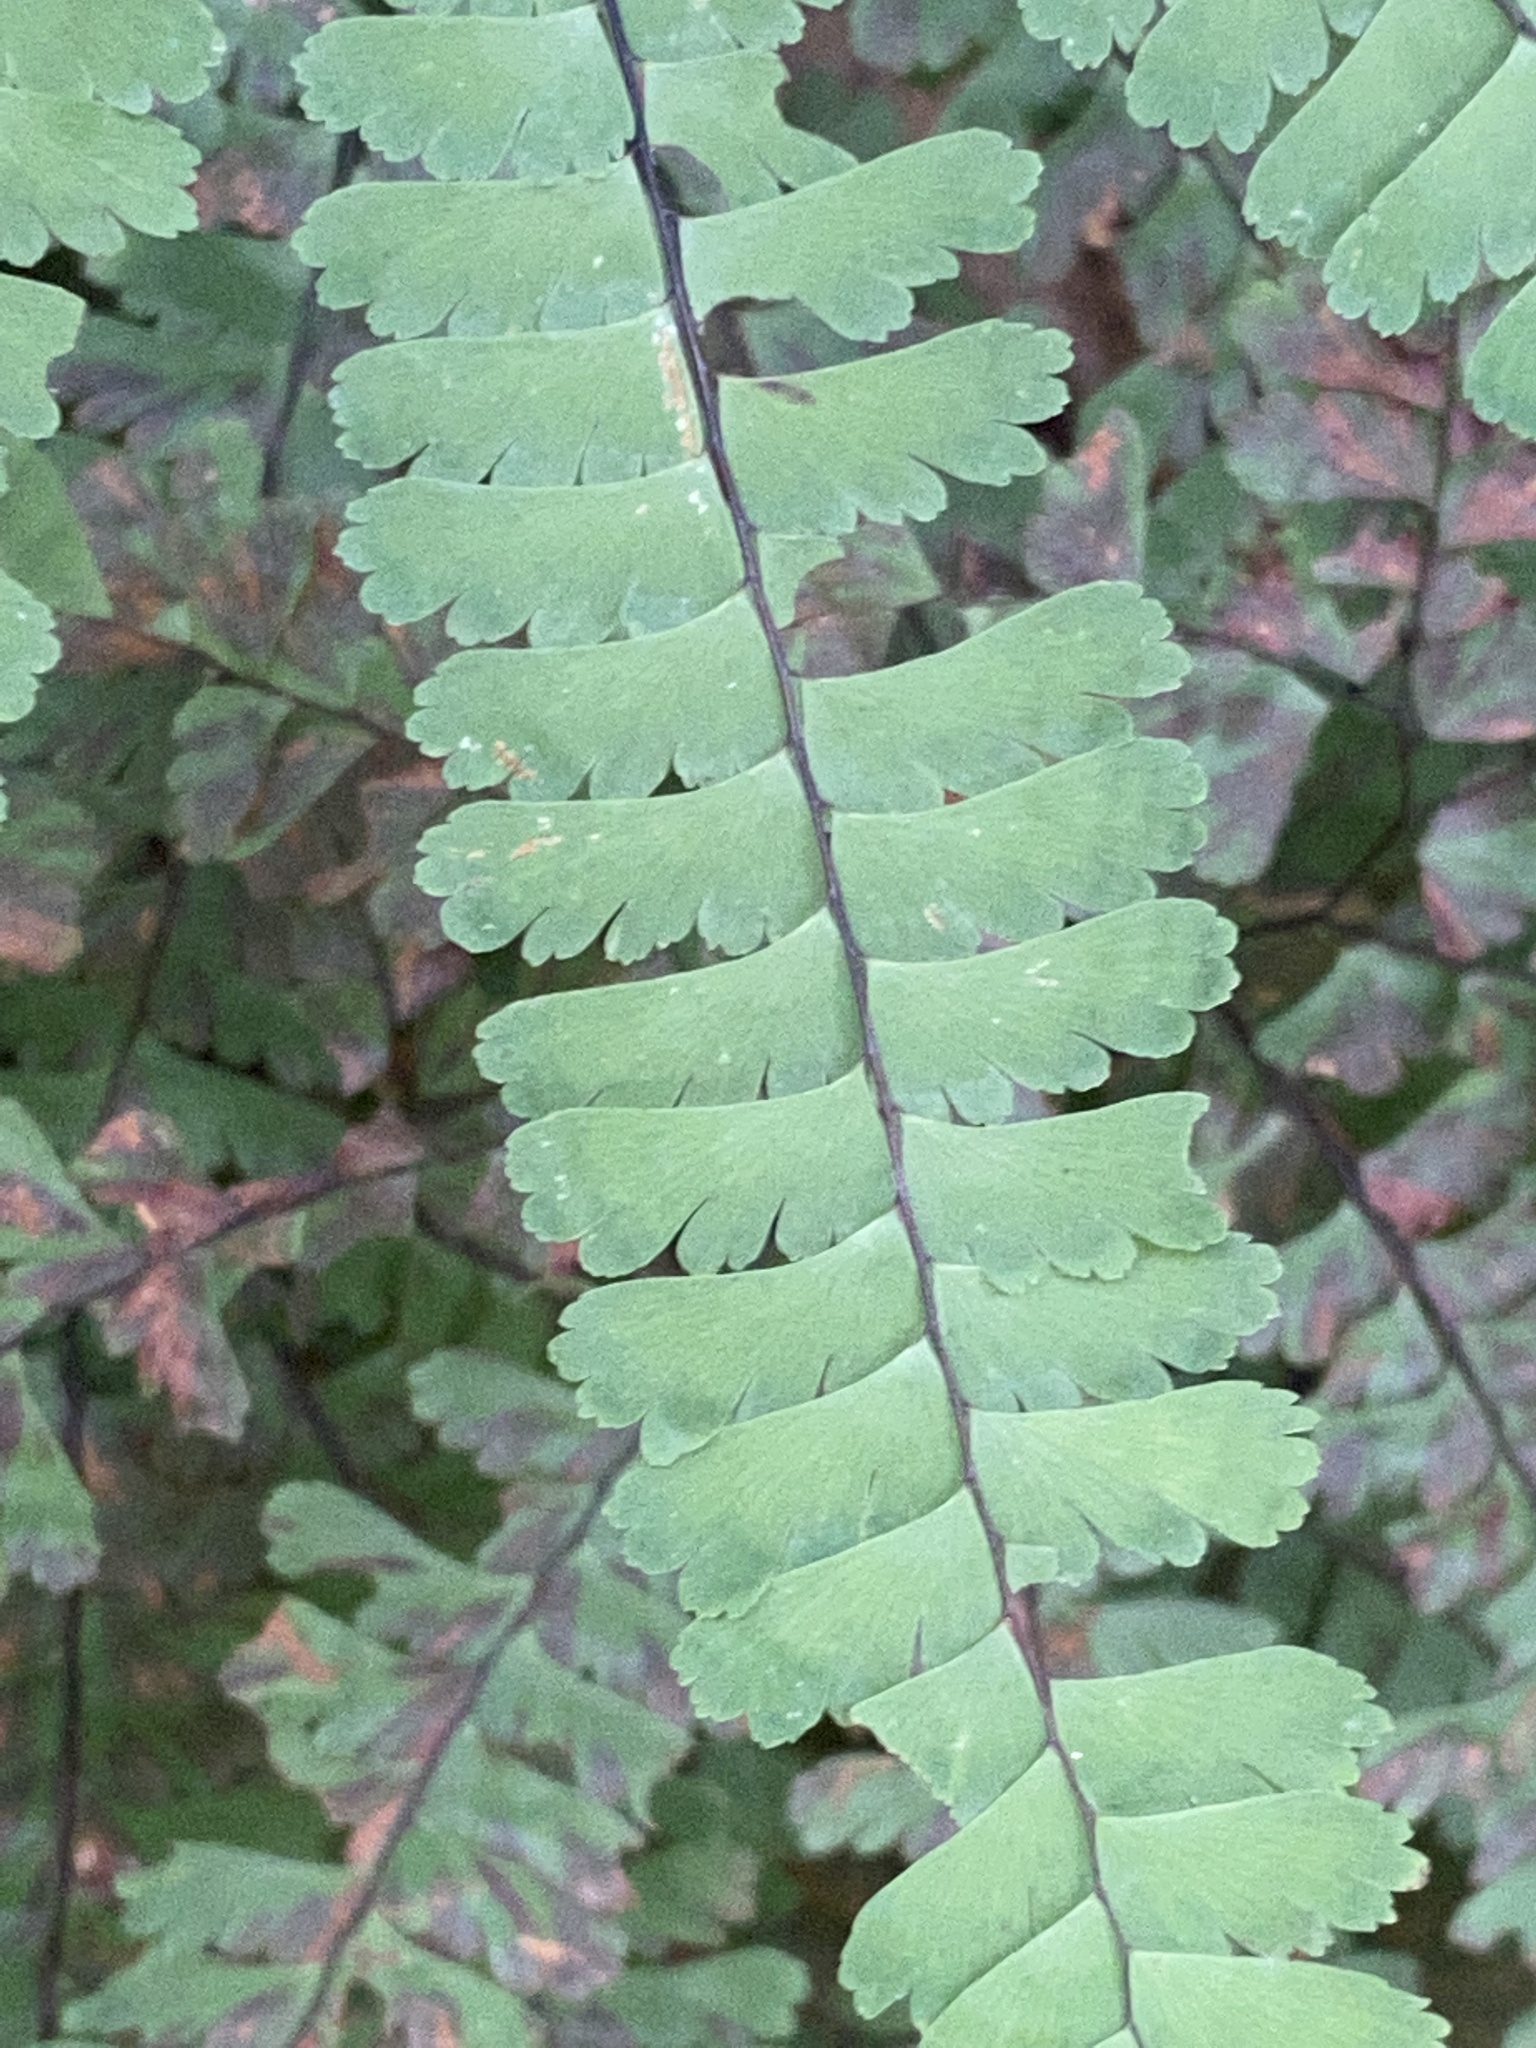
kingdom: Plantae
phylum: Tracheophyta
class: Polypodiopsida
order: Polypodiales
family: Pteridaceae
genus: Adiantum
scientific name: Adiantum pedatum
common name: Five-finger fern
